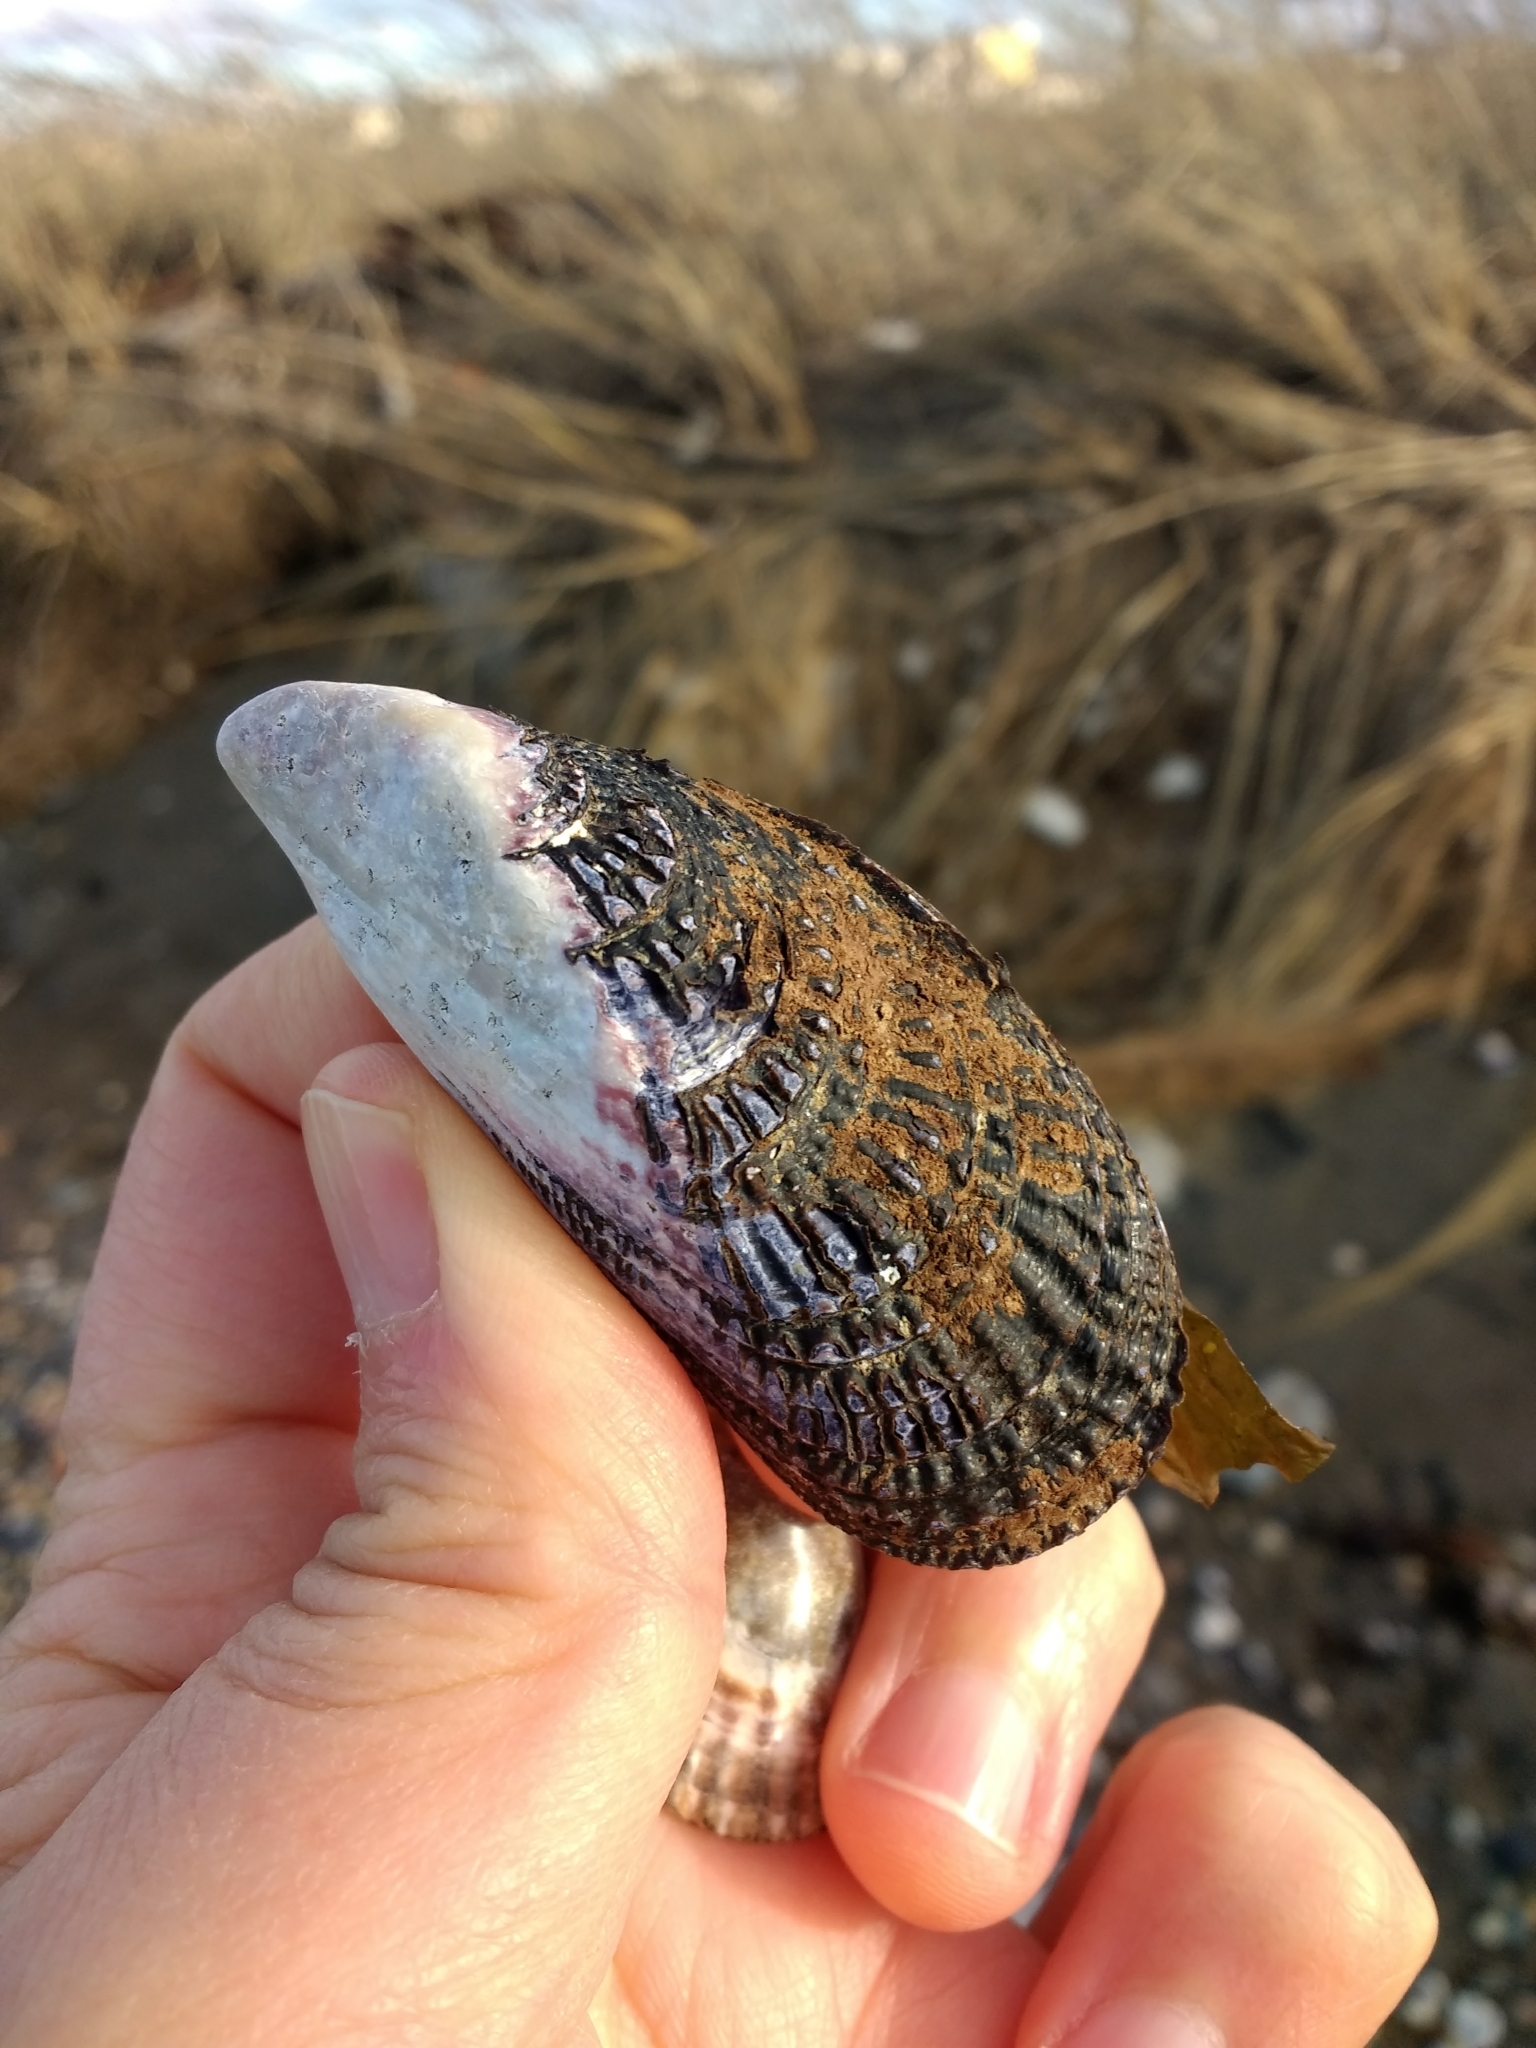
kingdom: Animalia
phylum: Mollusca
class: Bivalvia
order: Mytilida
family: Mytilidae
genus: Aulacomya
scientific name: Aulacomya atra
